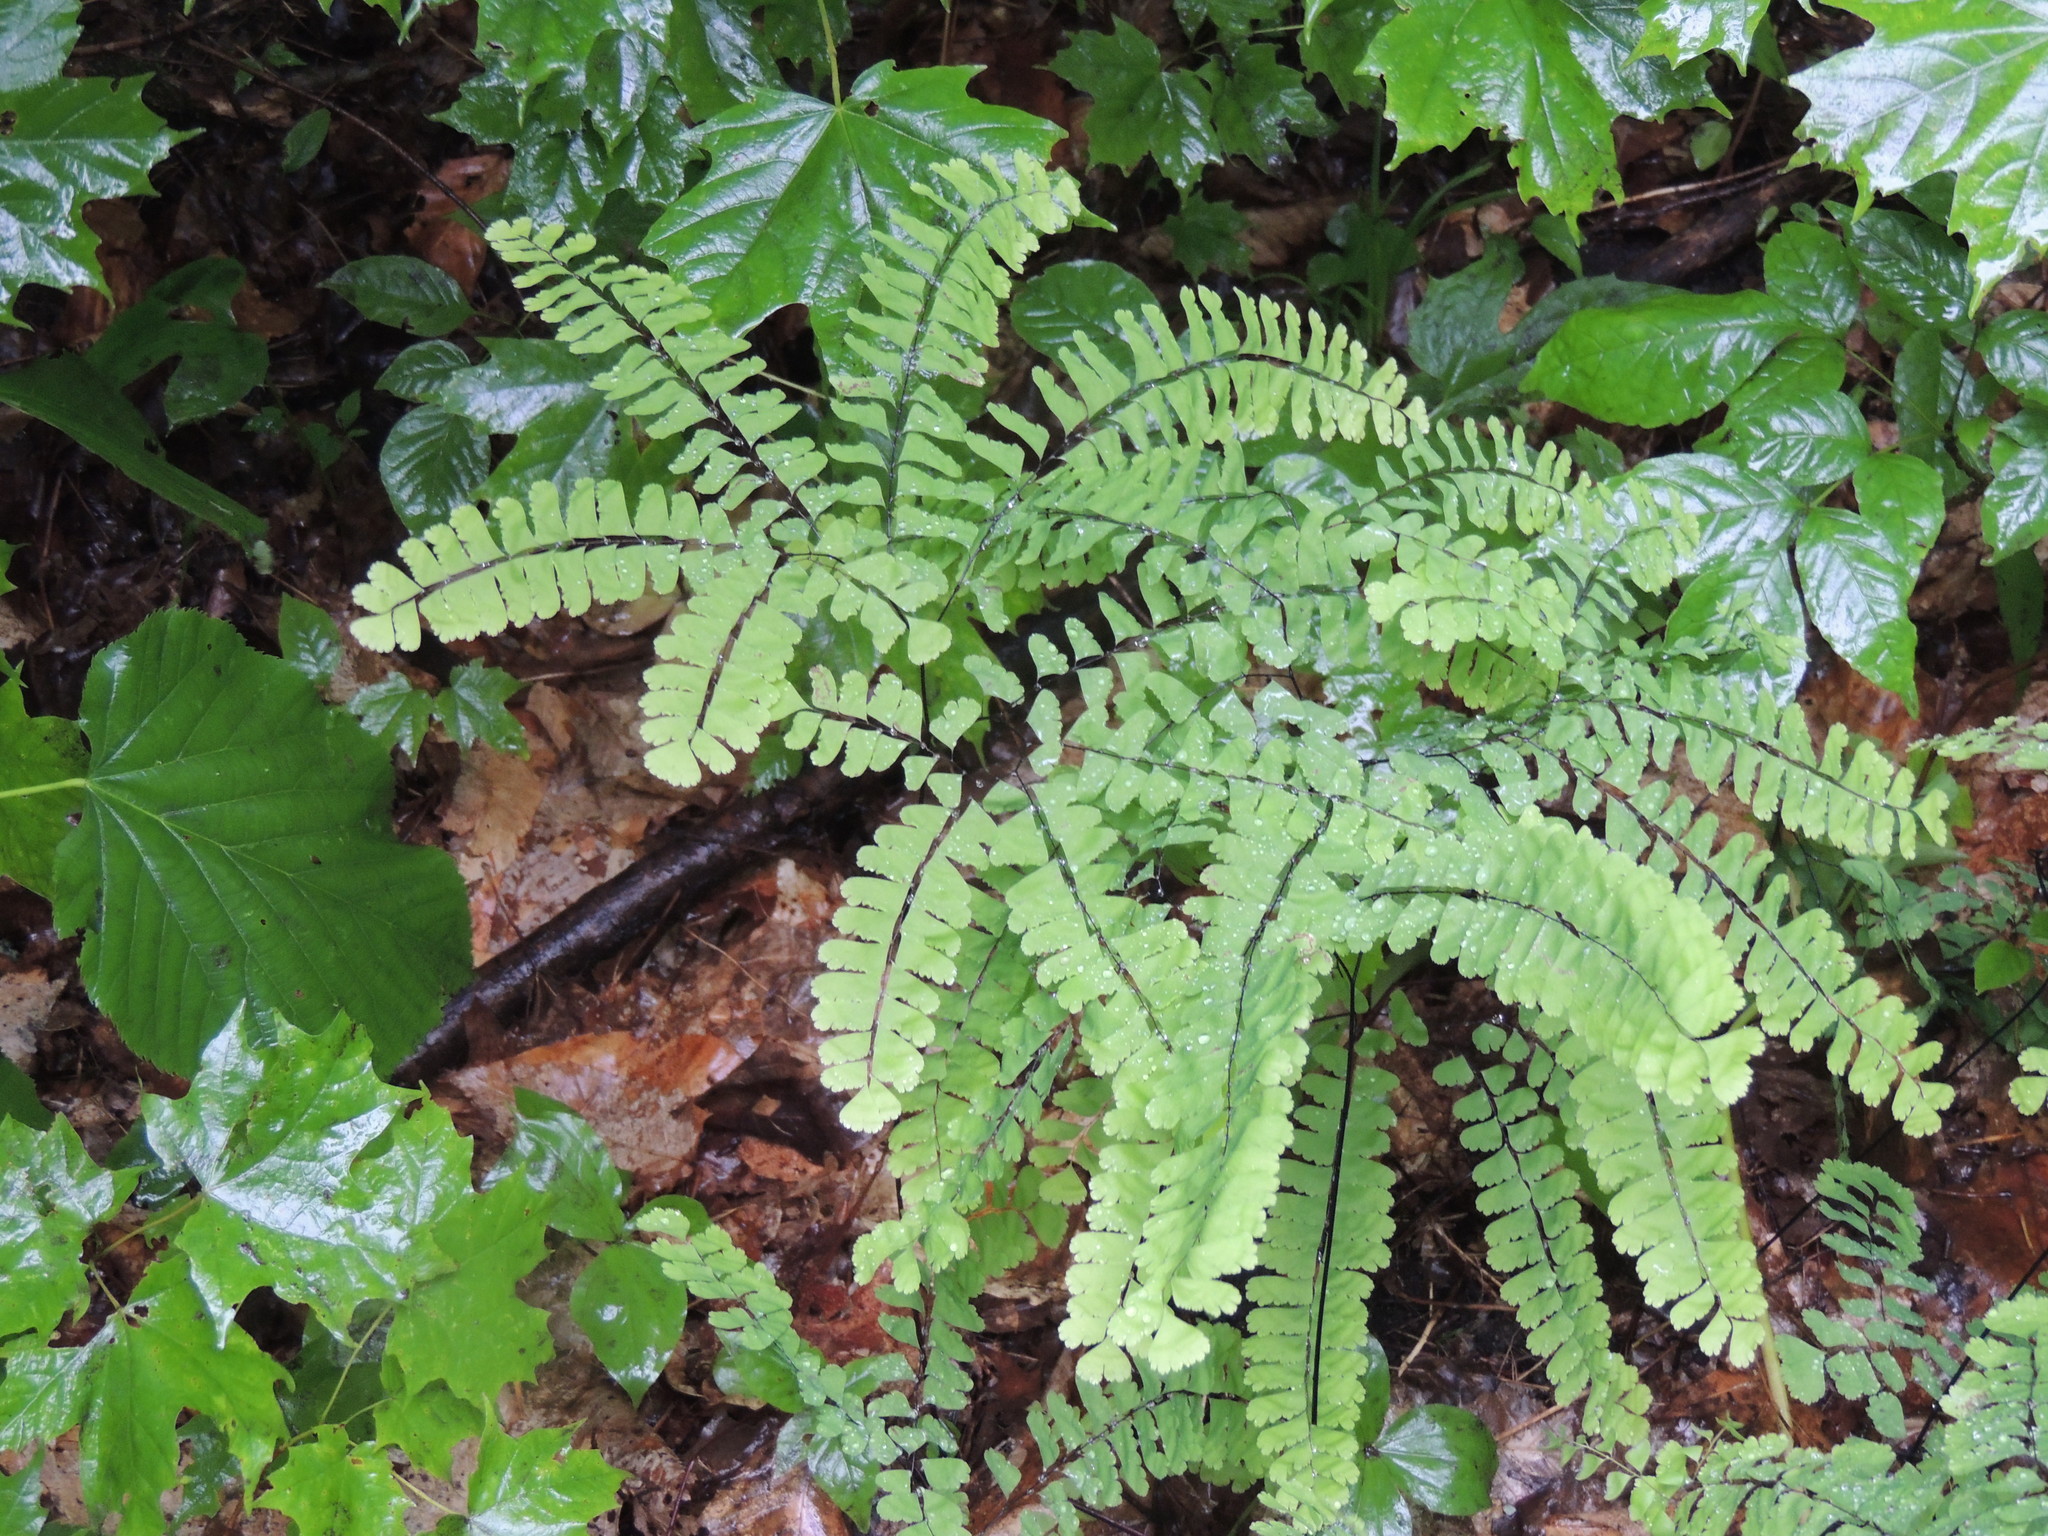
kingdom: Plantae
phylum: Tracheophyta
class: Polypodiopsida
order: Polypodiales
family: Pteridaceae
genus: Adiantum
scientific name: Adiantum pedatum
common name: Five-finger fern
